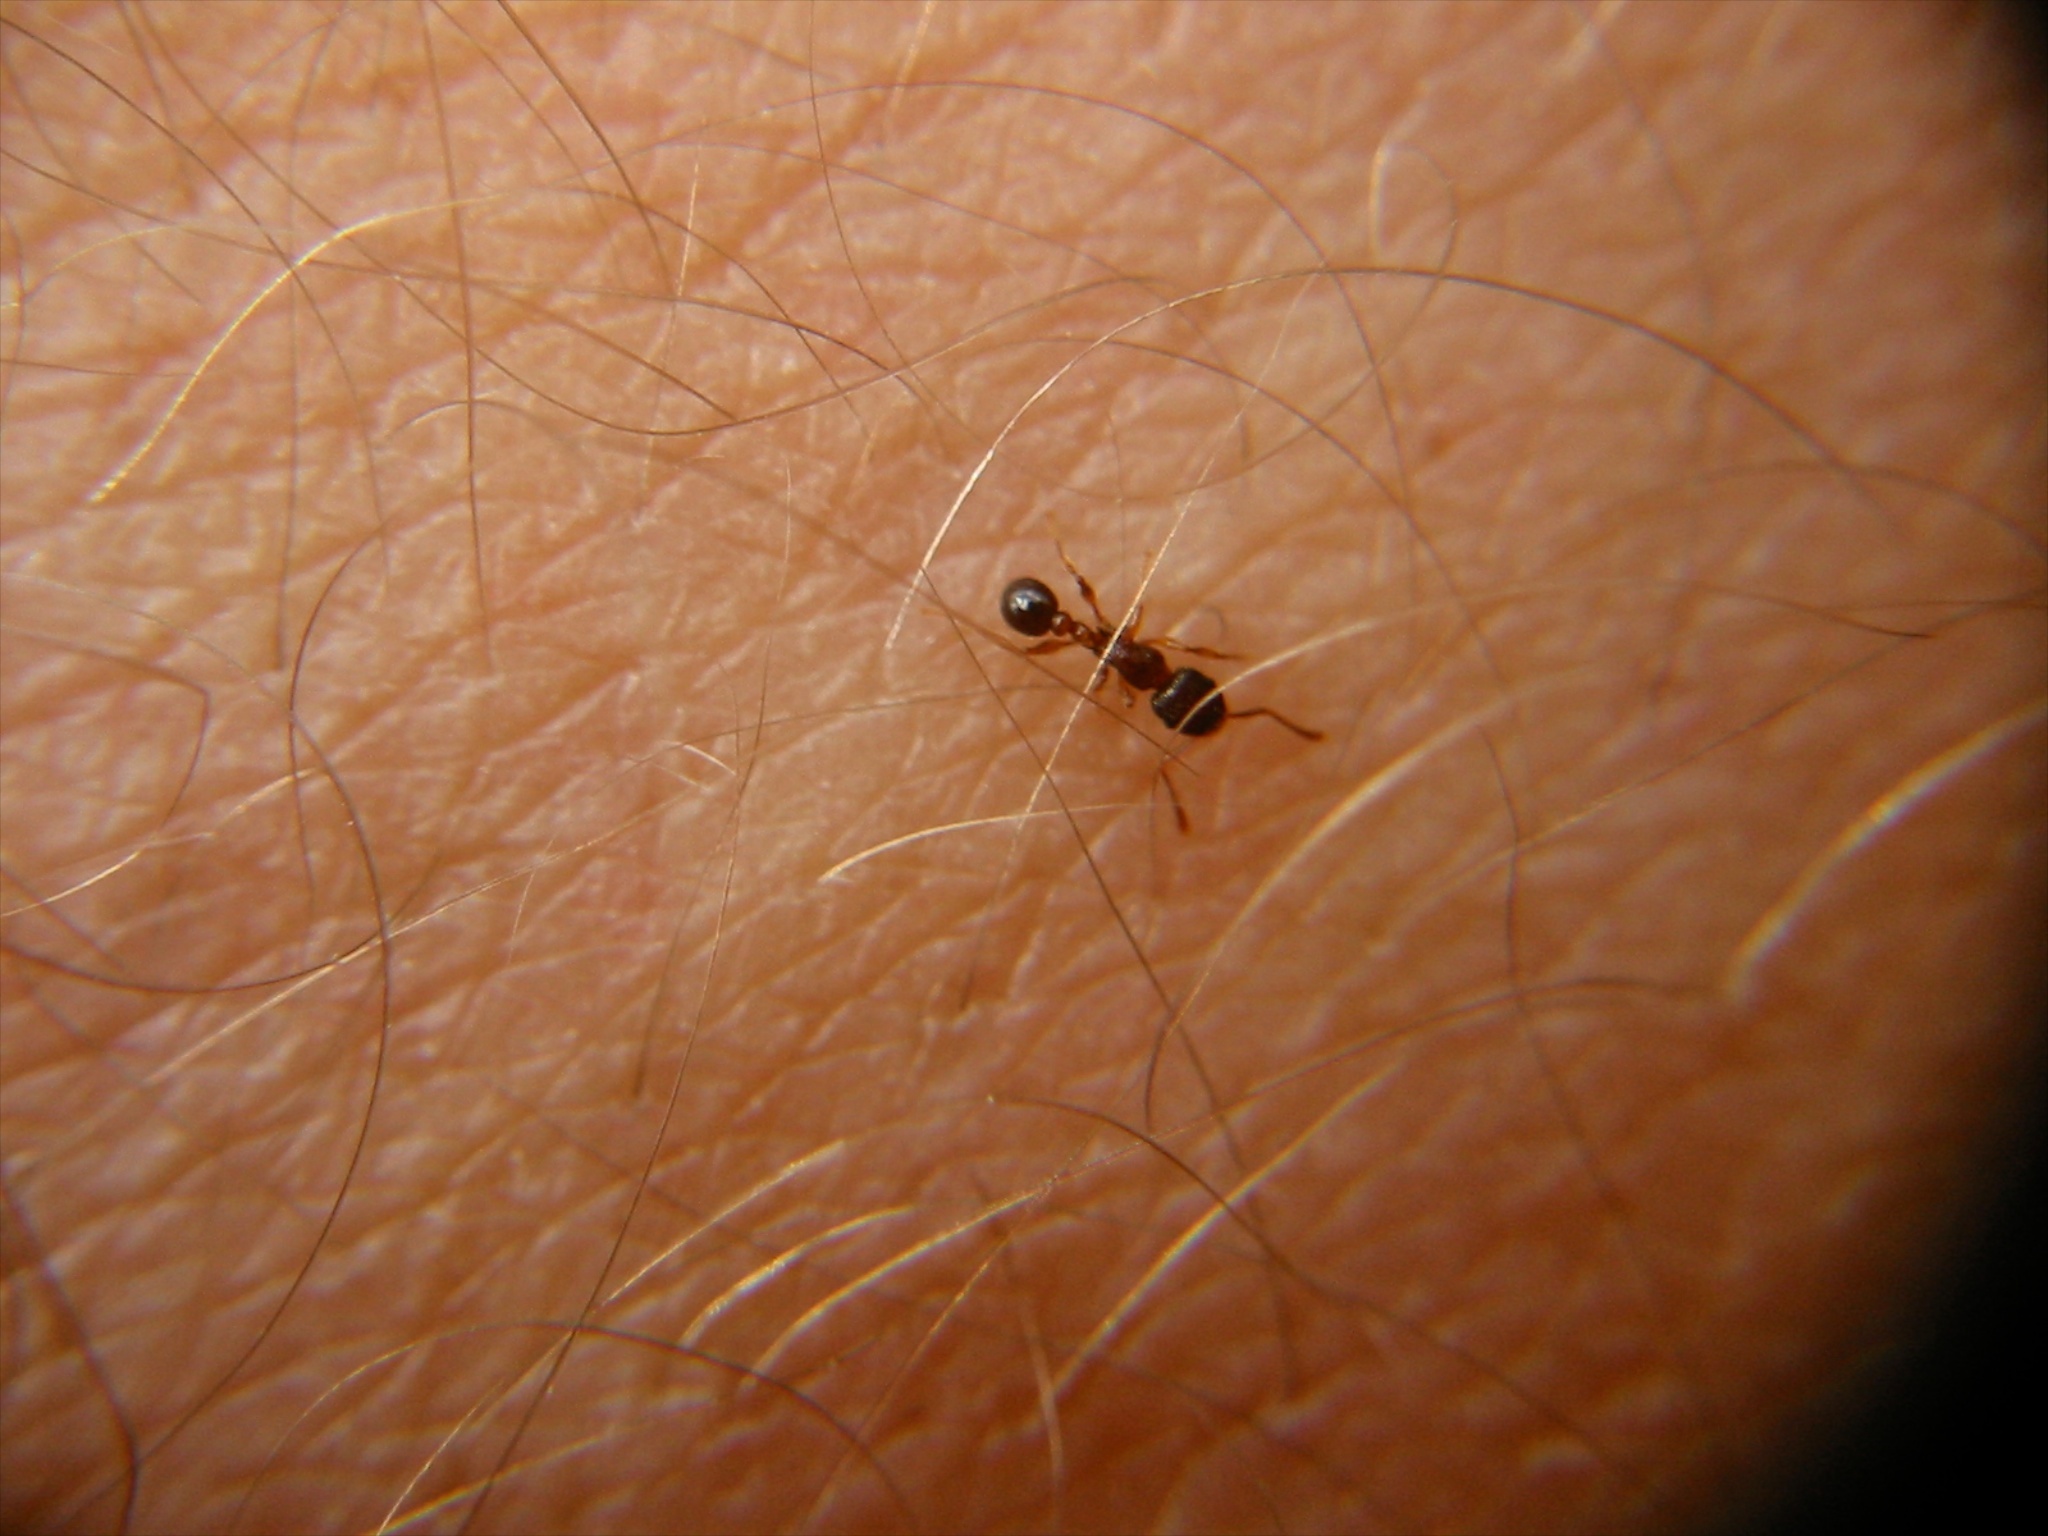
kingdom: Animalia
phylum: Arthropoda
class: Insecta
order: Hymenoptera
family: Formicidae
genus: Tetramorium
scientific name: Tetramorium grassii
